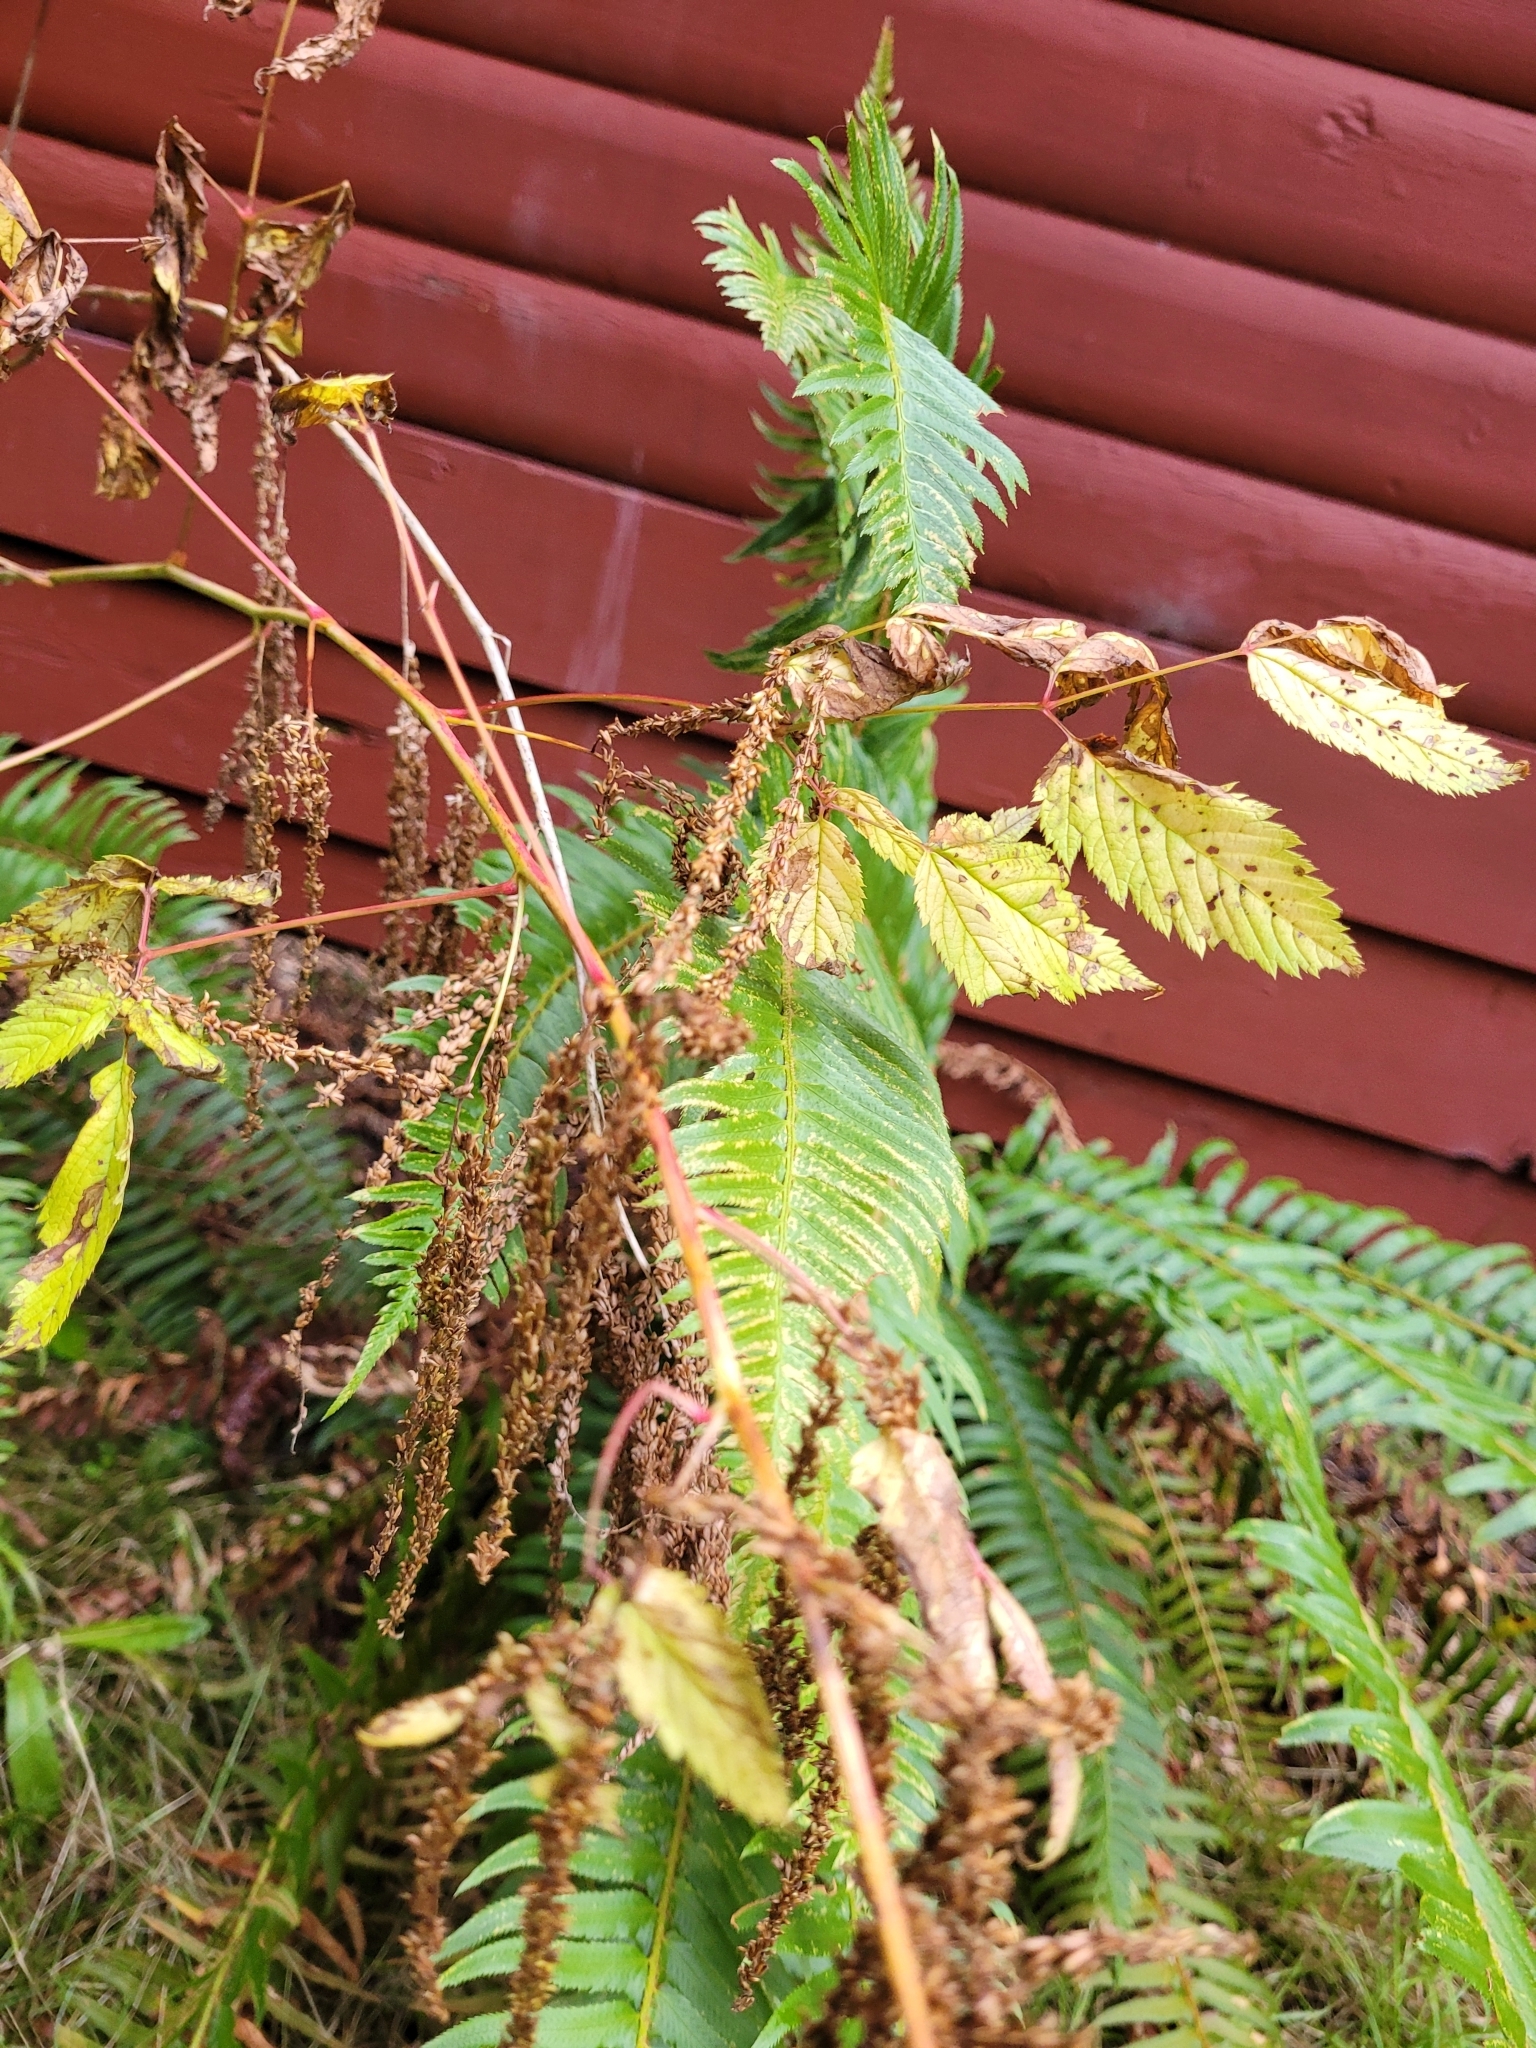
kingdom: Plantae
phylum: Tracheophyta
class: Magnoliopsida
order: Rosales
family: Rosaceae
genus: Aruncus
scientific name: Aruncus dioicus
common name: Buck's-beard
